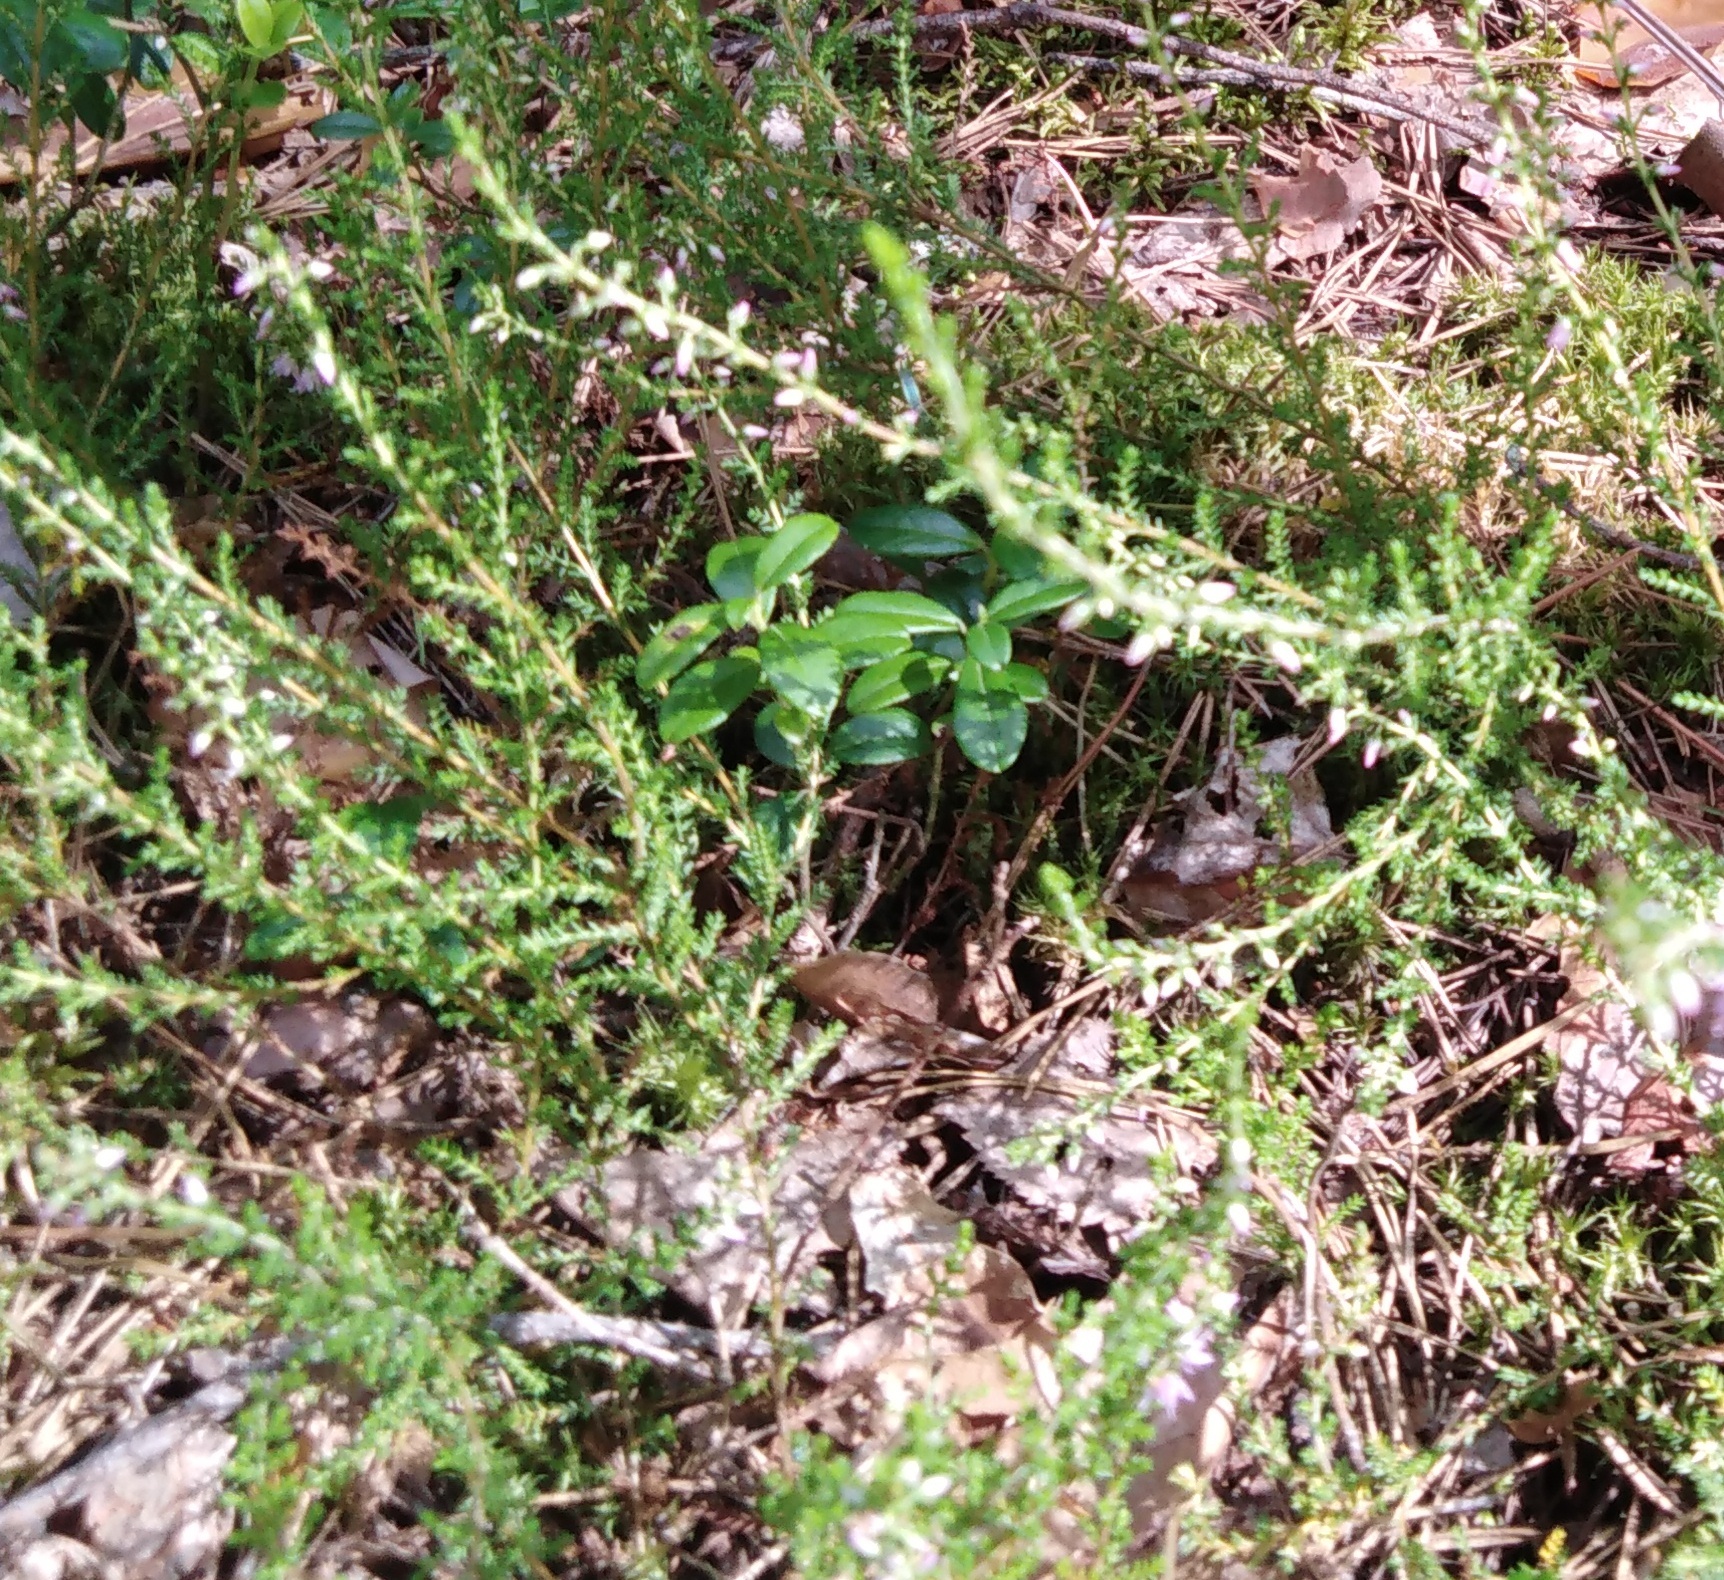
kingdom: Plantae
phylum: Tracheophyta
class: Magnoliopsida
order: Ericales
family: Ericaceae
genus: Calluna
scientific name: Calluna vulgaris
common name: Heather
